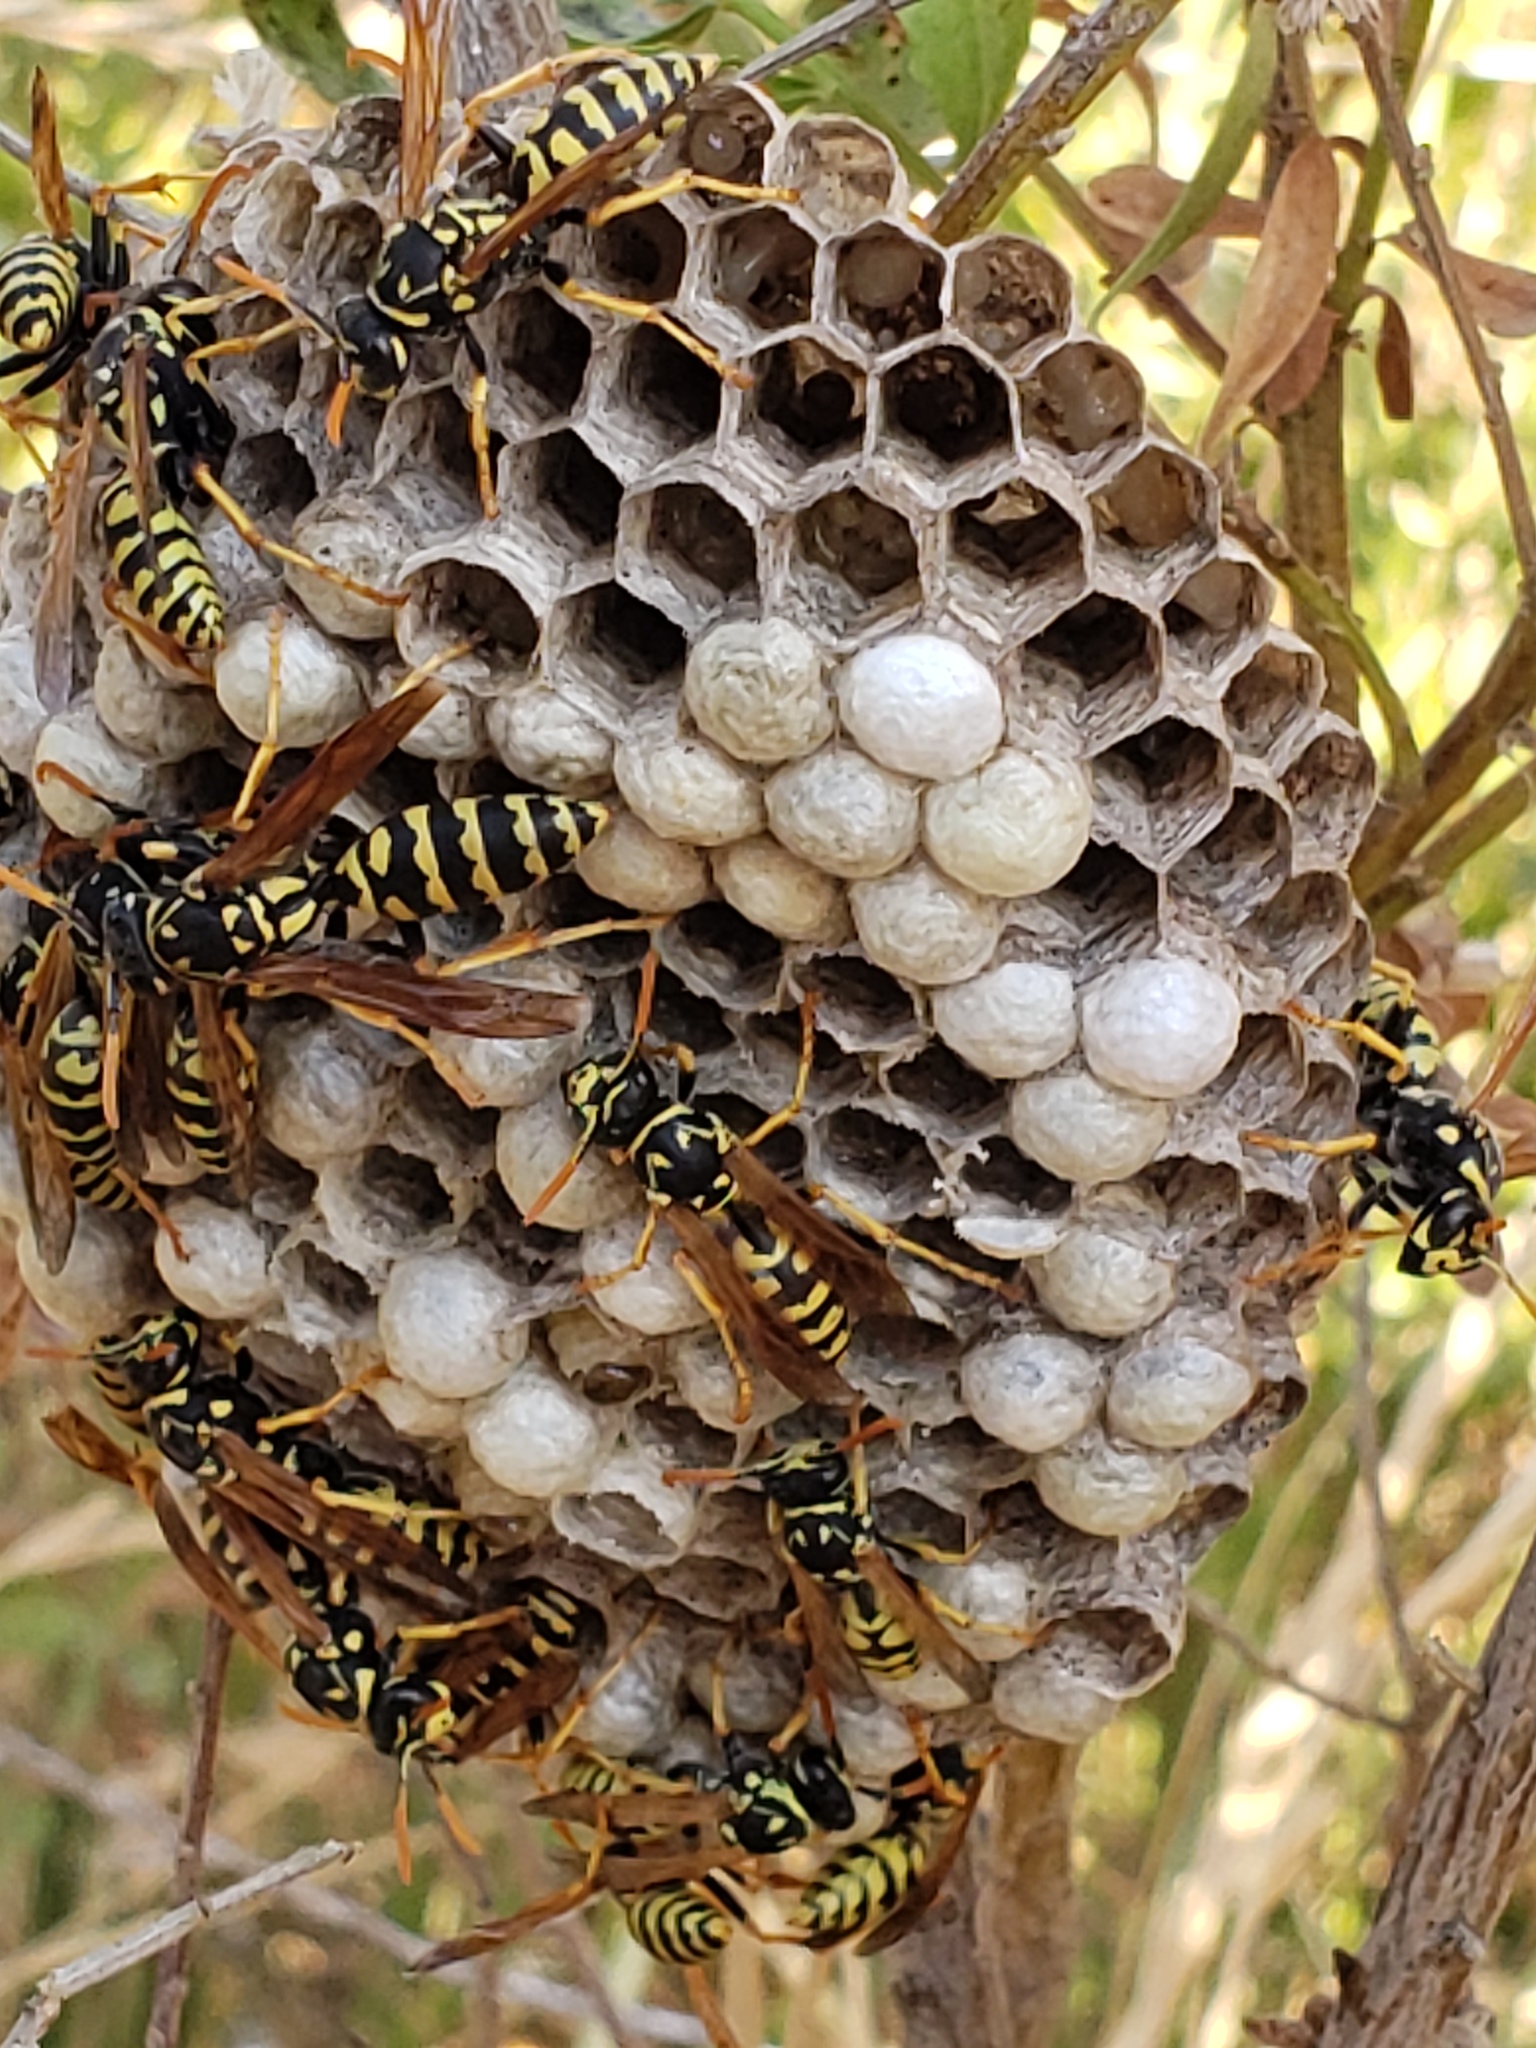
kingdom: Animalia
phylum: Arthropoda
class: Insecta
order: Hymenoptera
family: Eumenidae
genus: Polistes
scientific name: Polistes dominula
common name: Paper wasp
